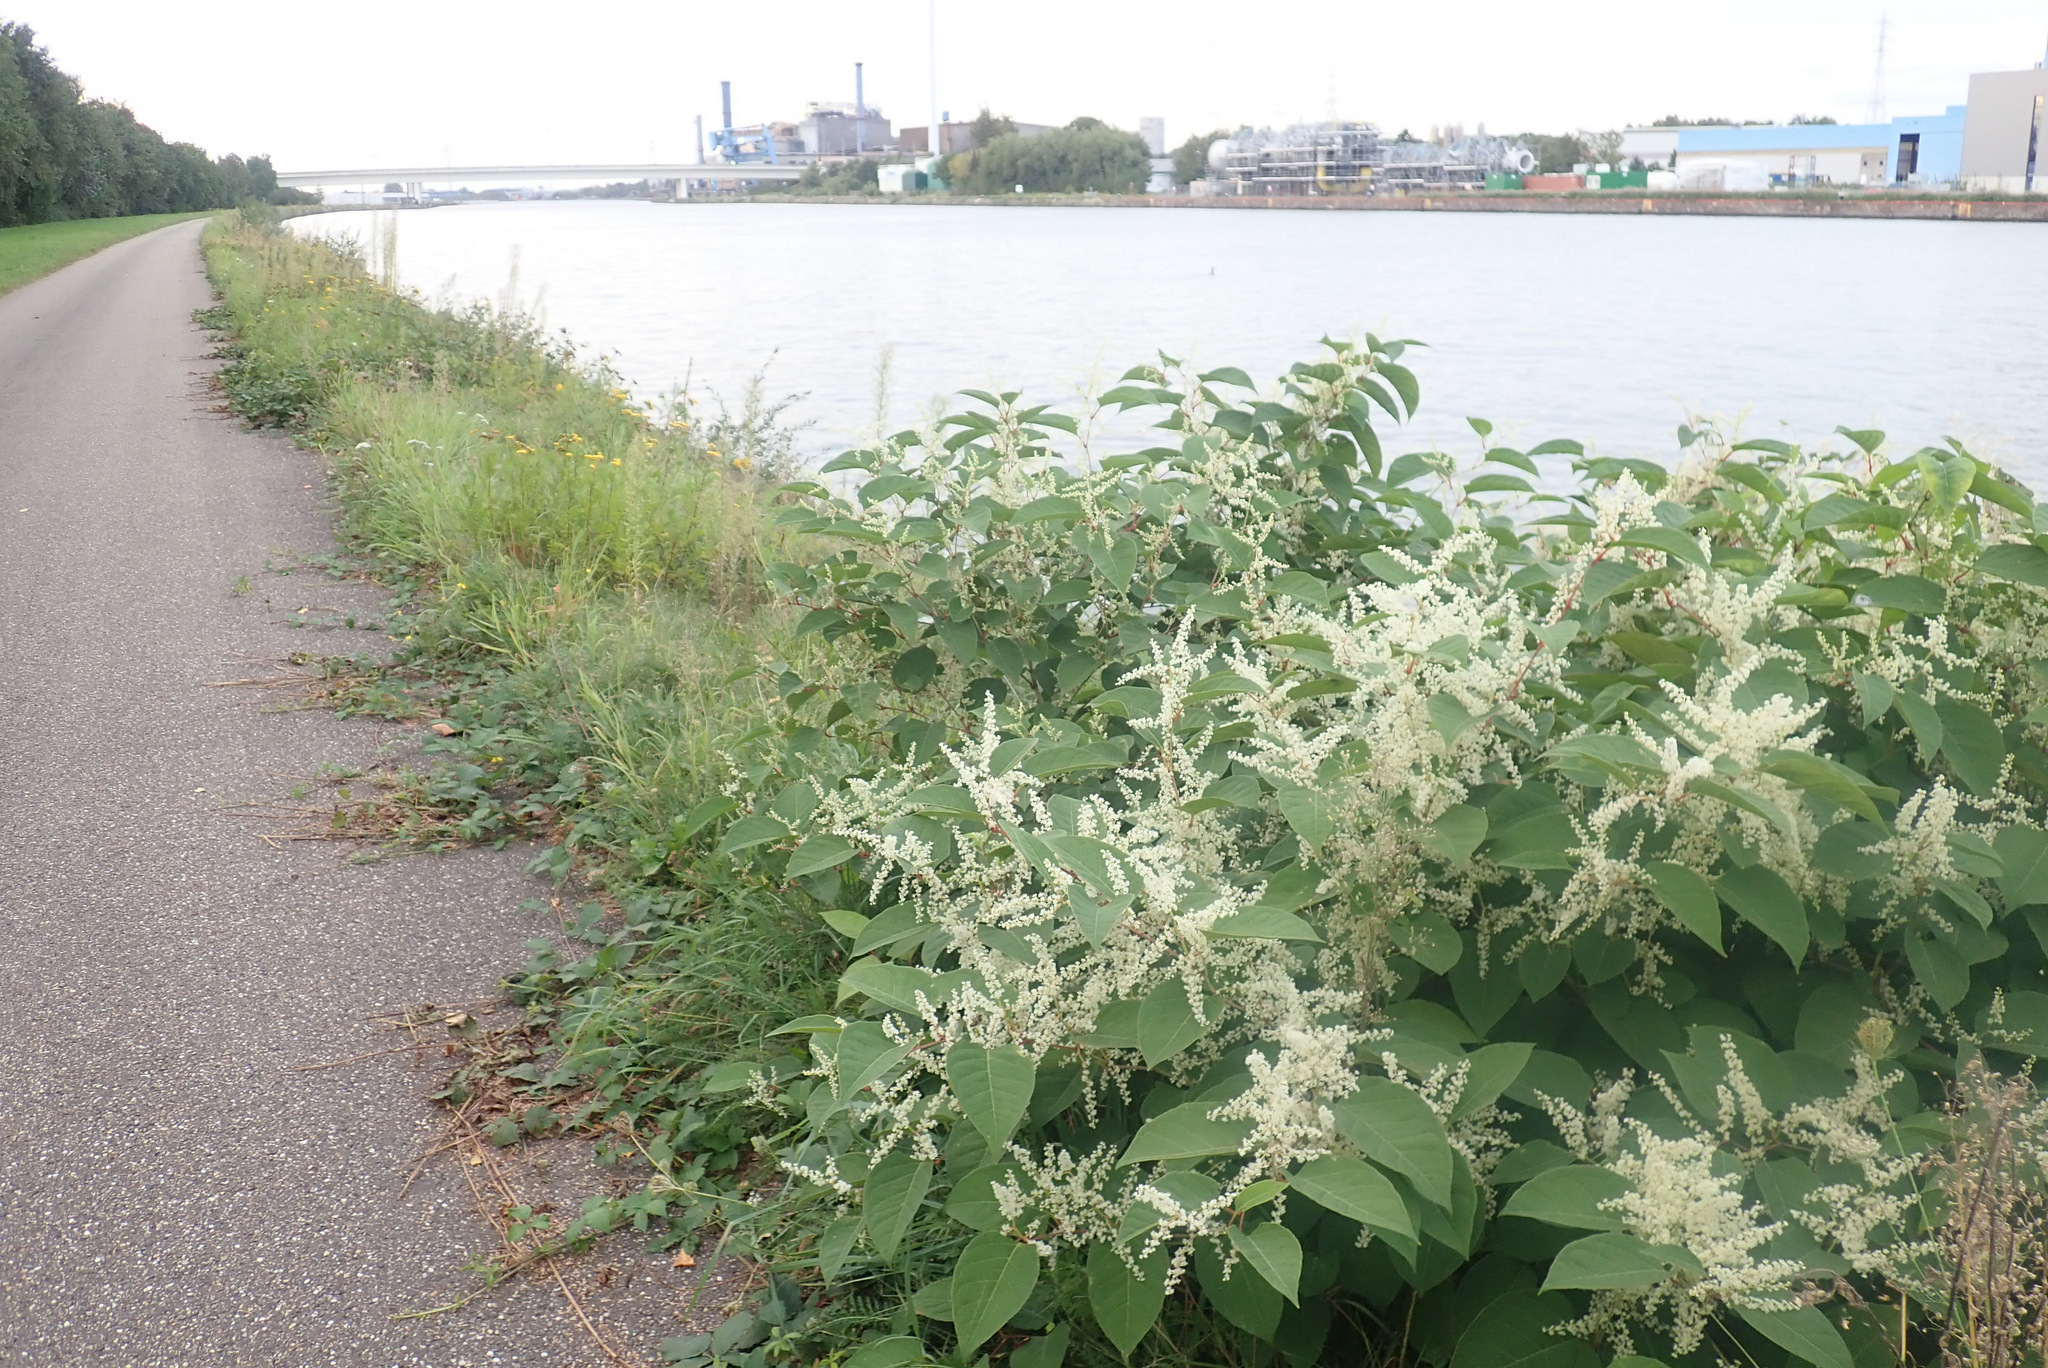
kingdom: Plantae
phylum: Tracheophyta
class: Magnoliopsida
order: Caryophyllales
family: Polygonaceae
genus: Reynoutria
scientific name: Reynoutria japonica
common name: Japanese knotweed
